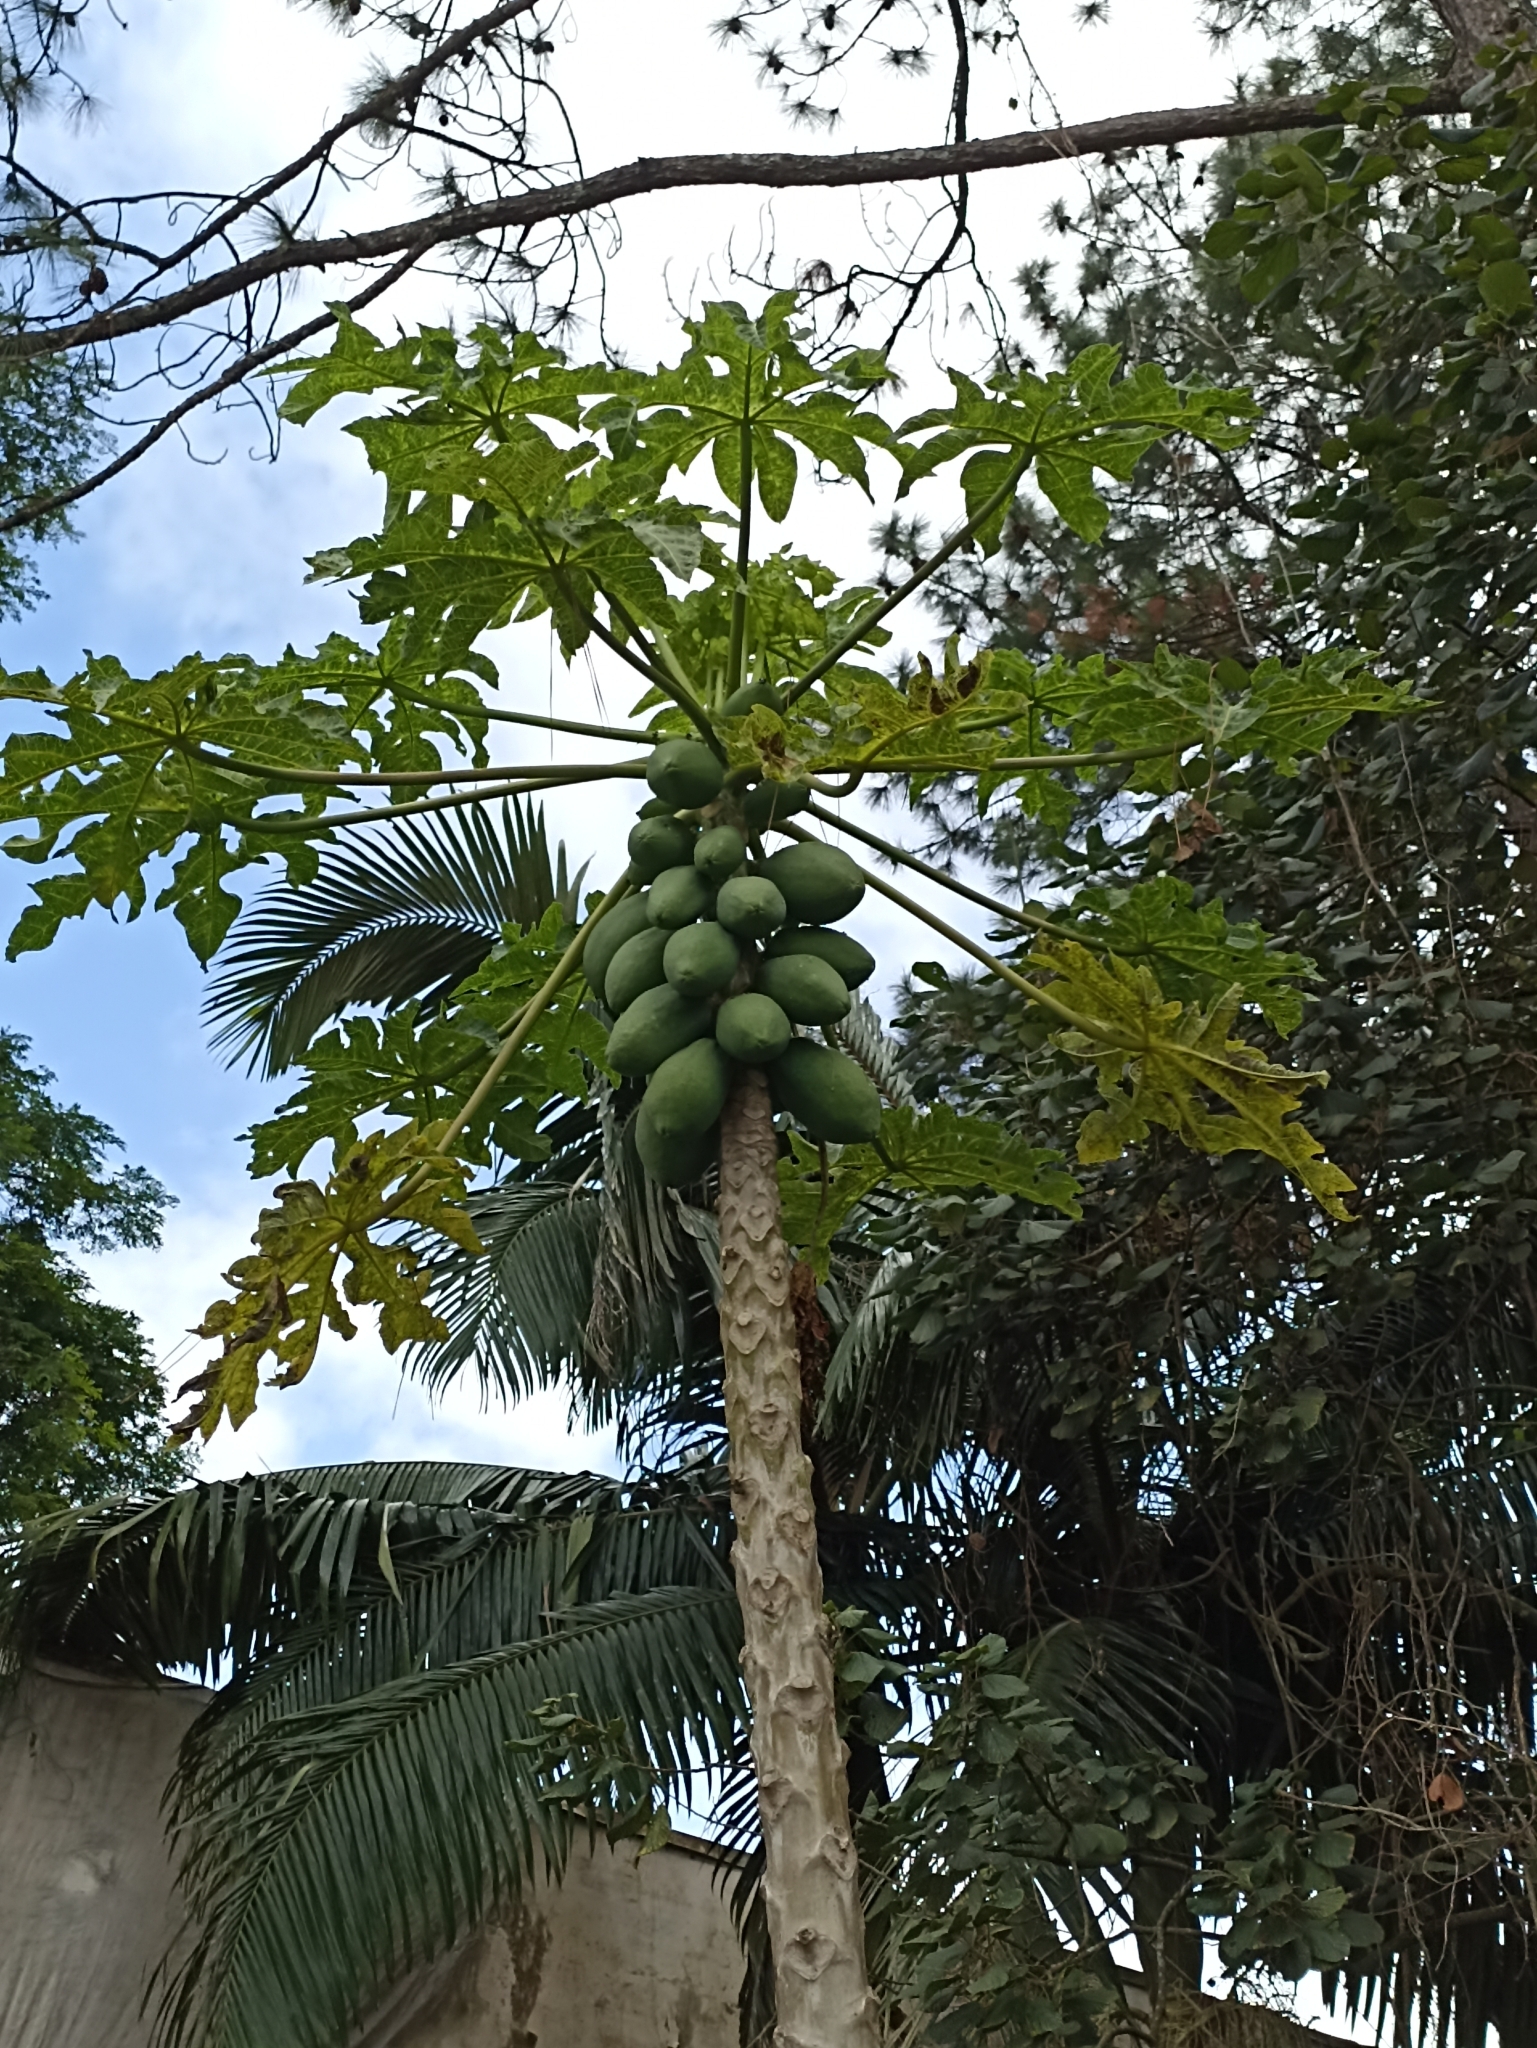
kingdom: Plantae
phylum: Tracheophyta
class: Magnoliopsida
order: Brassicales
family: Caricaceae
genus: Carica
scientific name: Carica papaya
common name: Papaya
